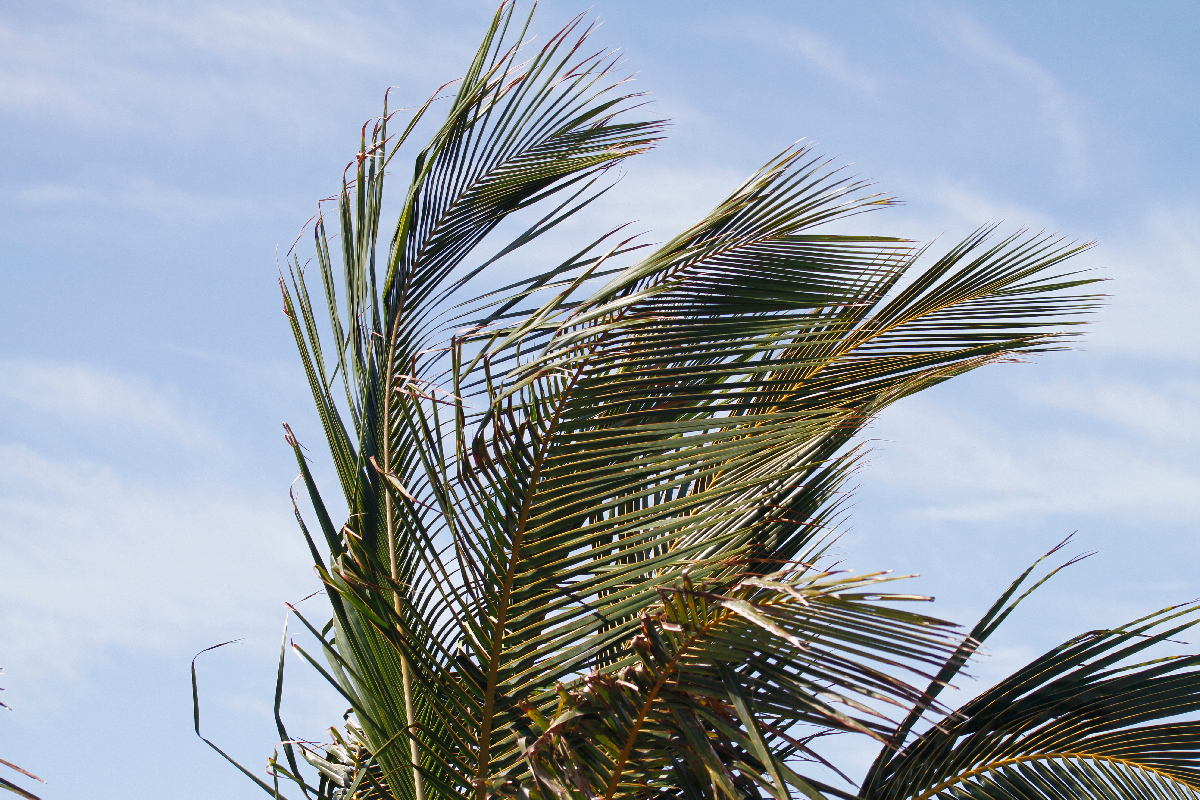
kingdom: Plantae
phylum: Tracheophyta
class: Liliopsida
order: Arecales
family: Arecaceae
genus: Cocos
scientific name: Cocos nucifera
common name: Coconut palm
